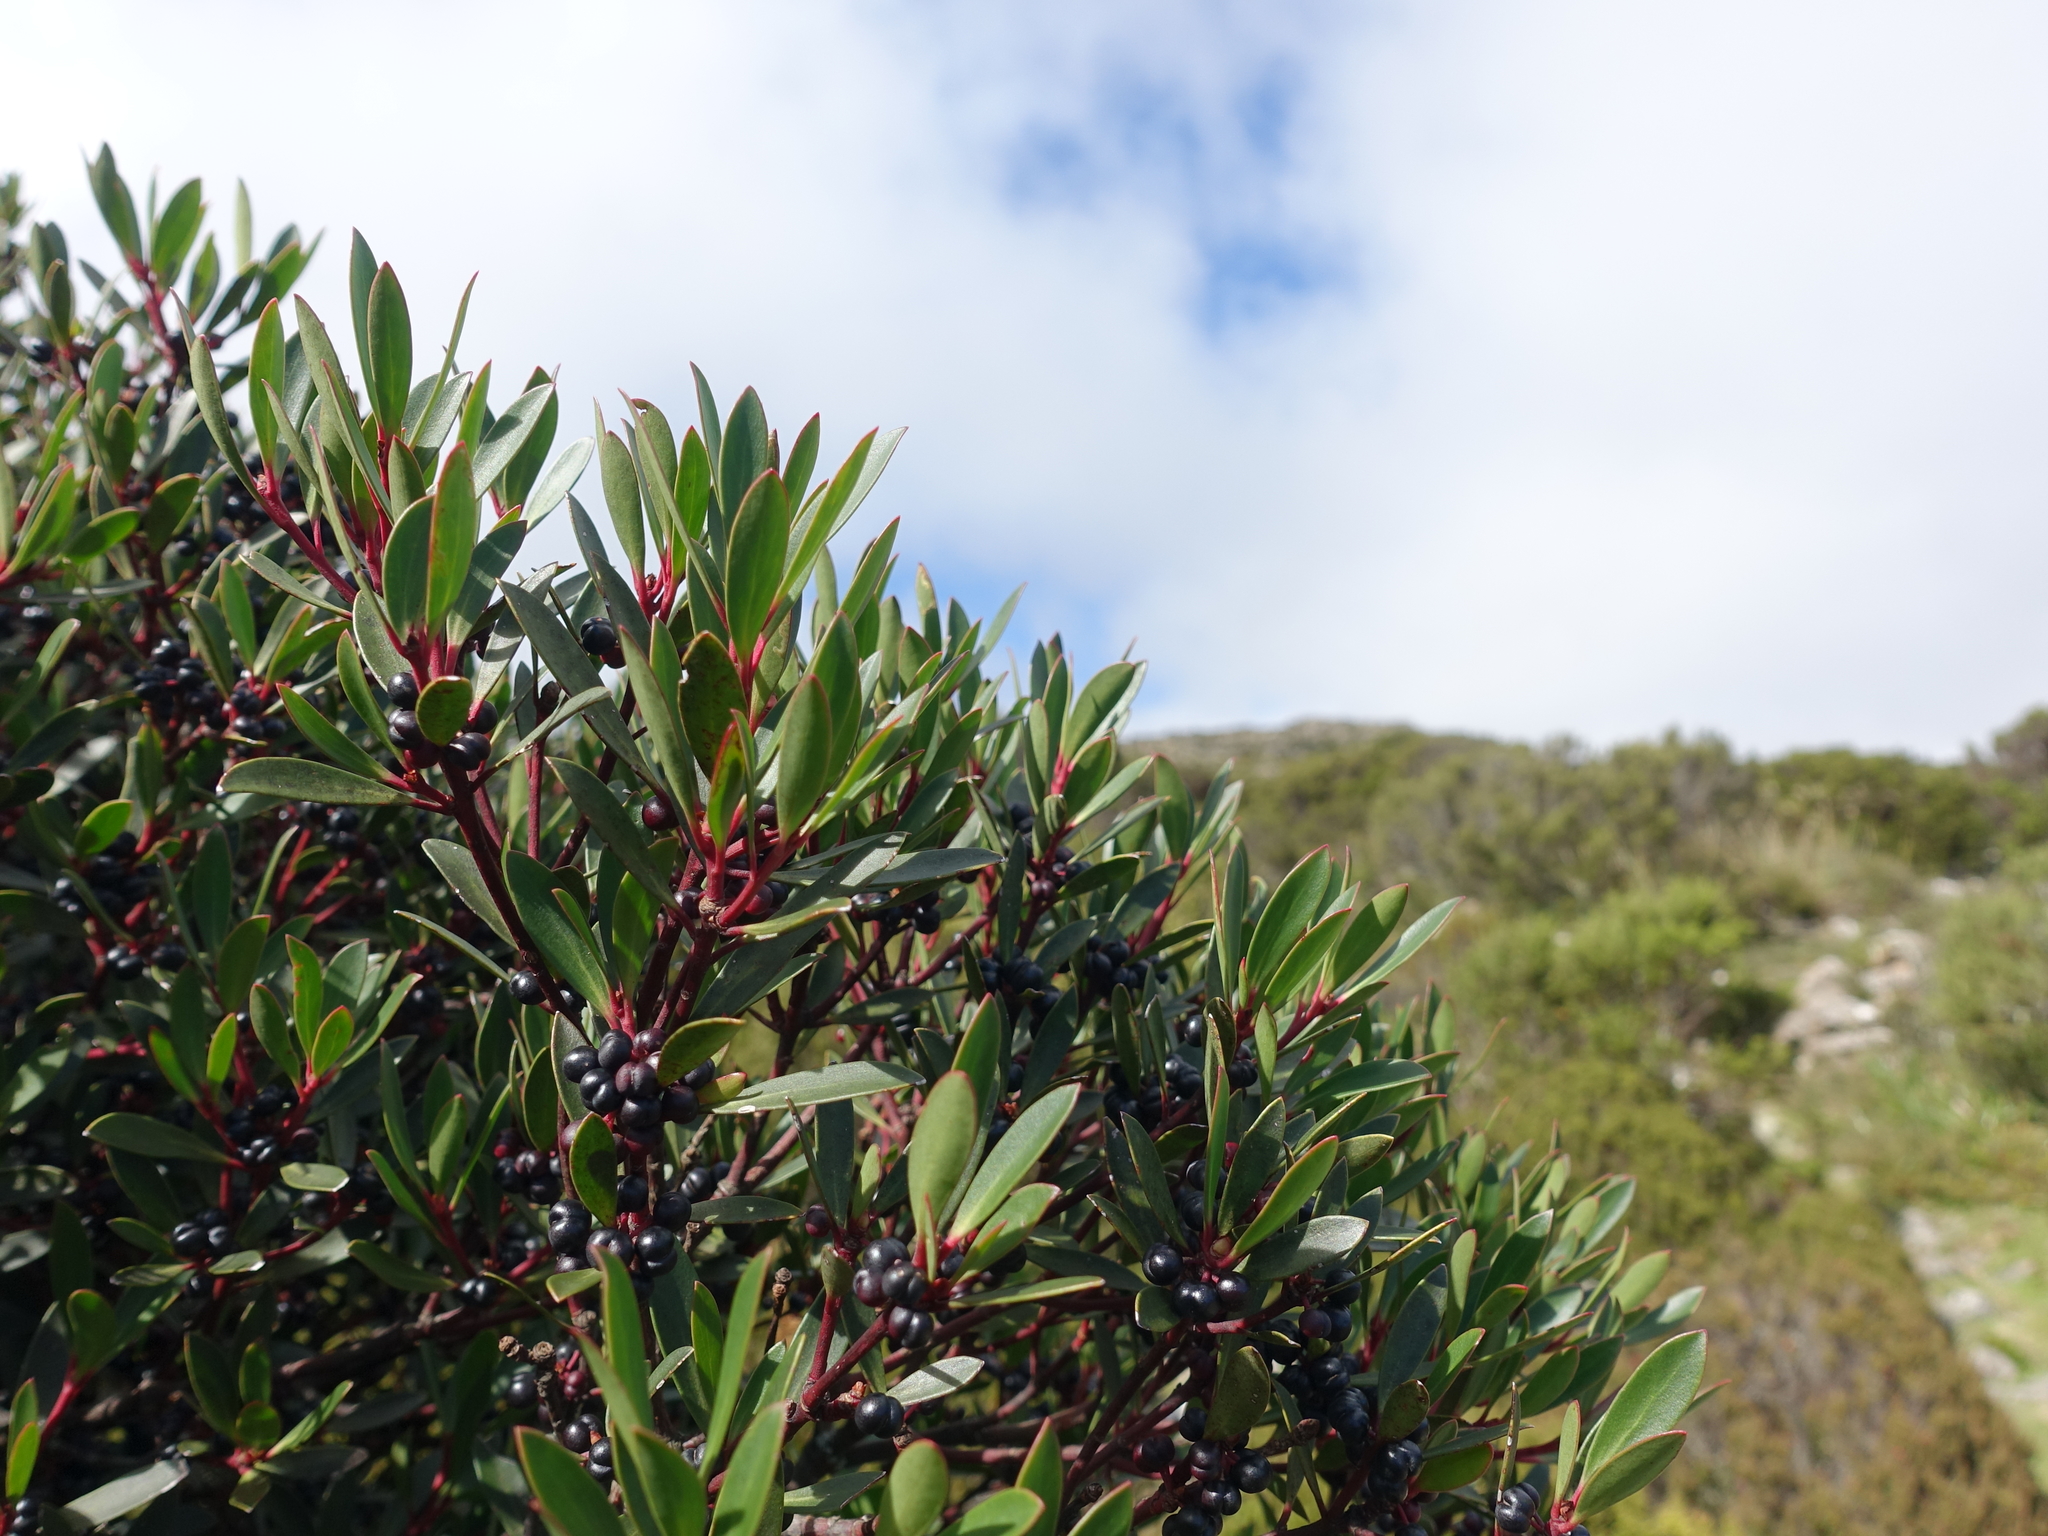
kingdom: Plantae
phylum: Tracheophyta
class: Magnoliopsida
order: Canellales
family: Winteraceae
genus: Drimys
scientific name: Drimys aromatica
